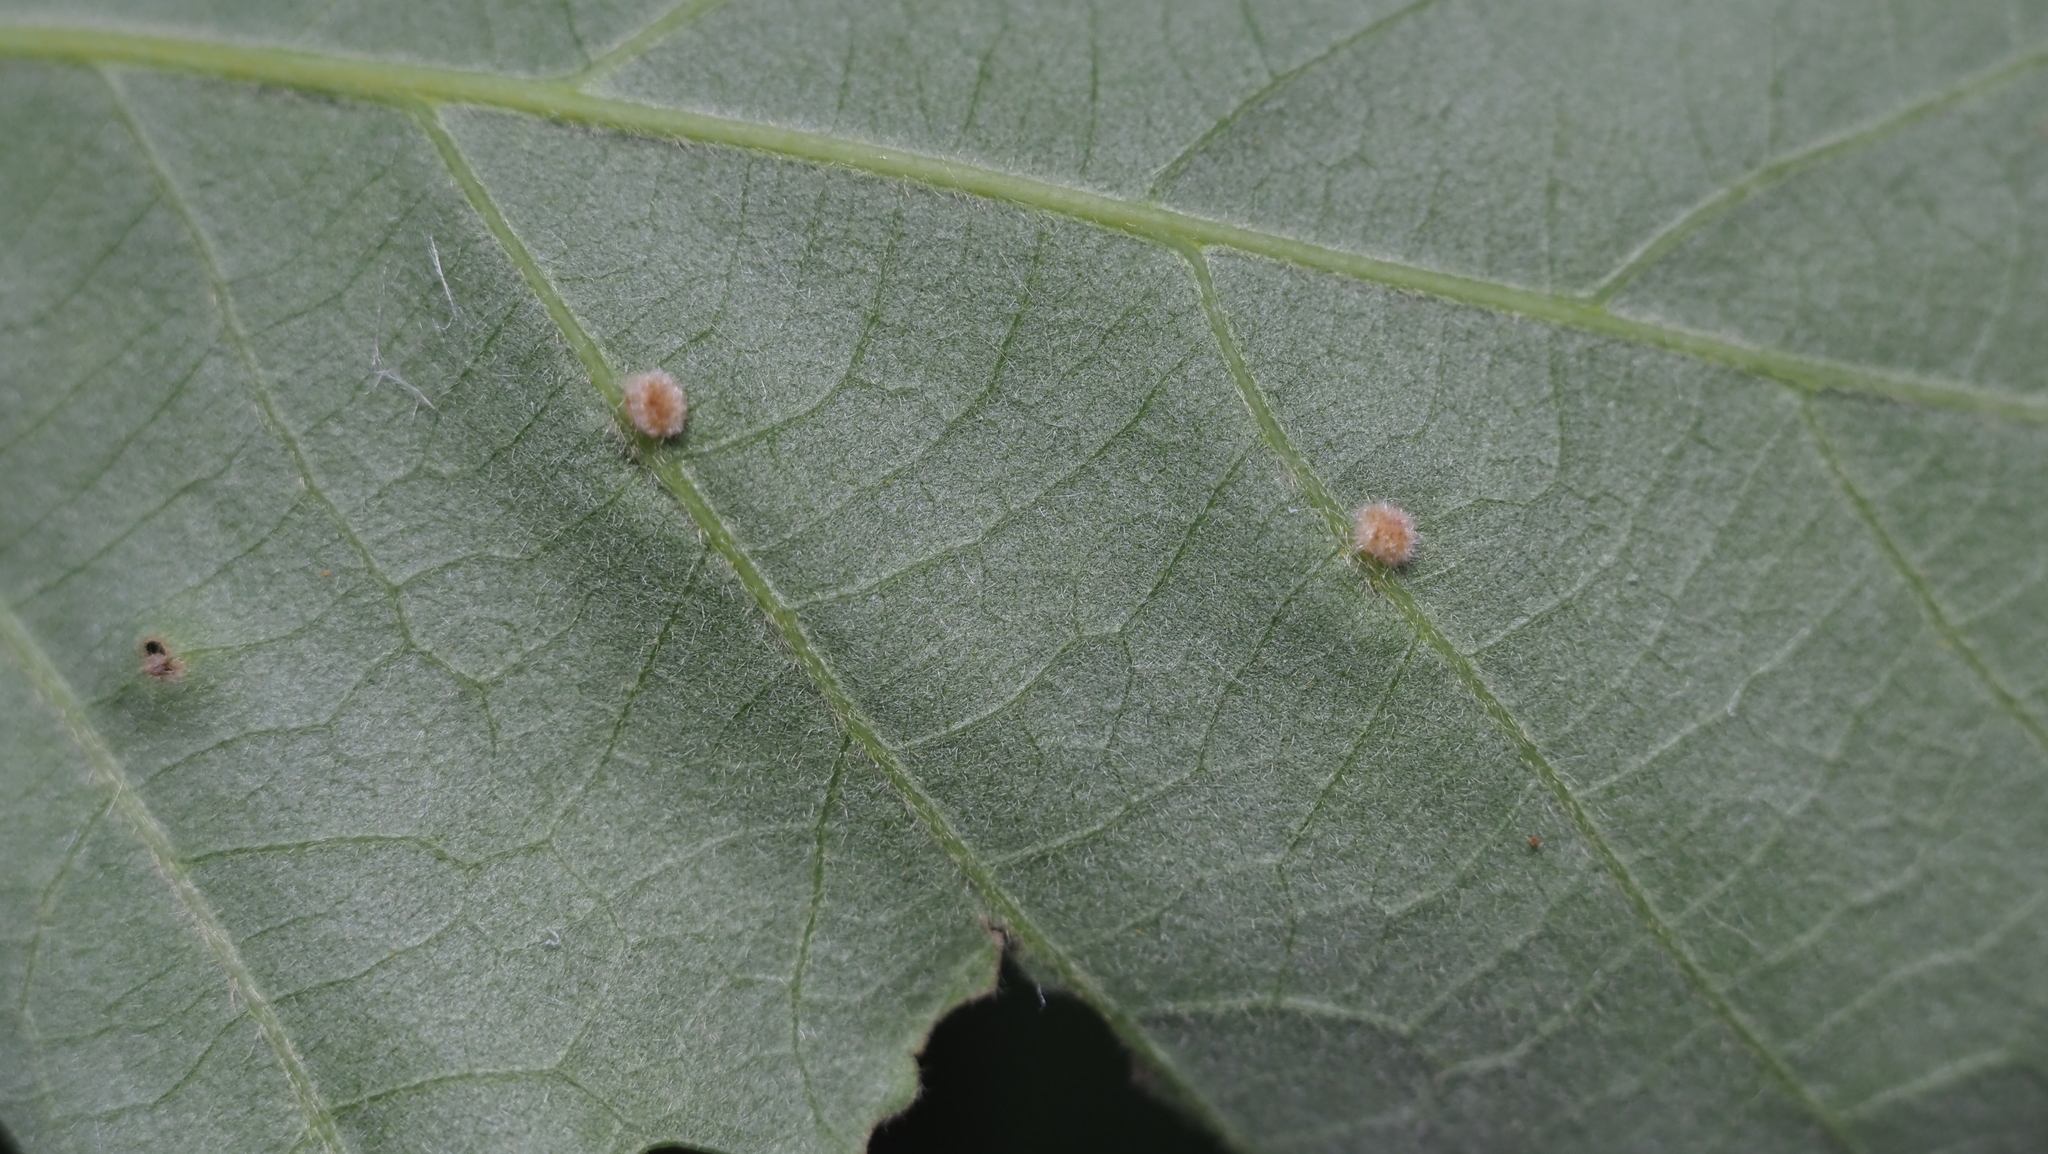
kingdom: Animalia
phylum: Arthropoda
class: Insecta
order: Hymenoptera
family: Cynipidae
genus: Philonix
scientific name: Philonix fulvicollis
